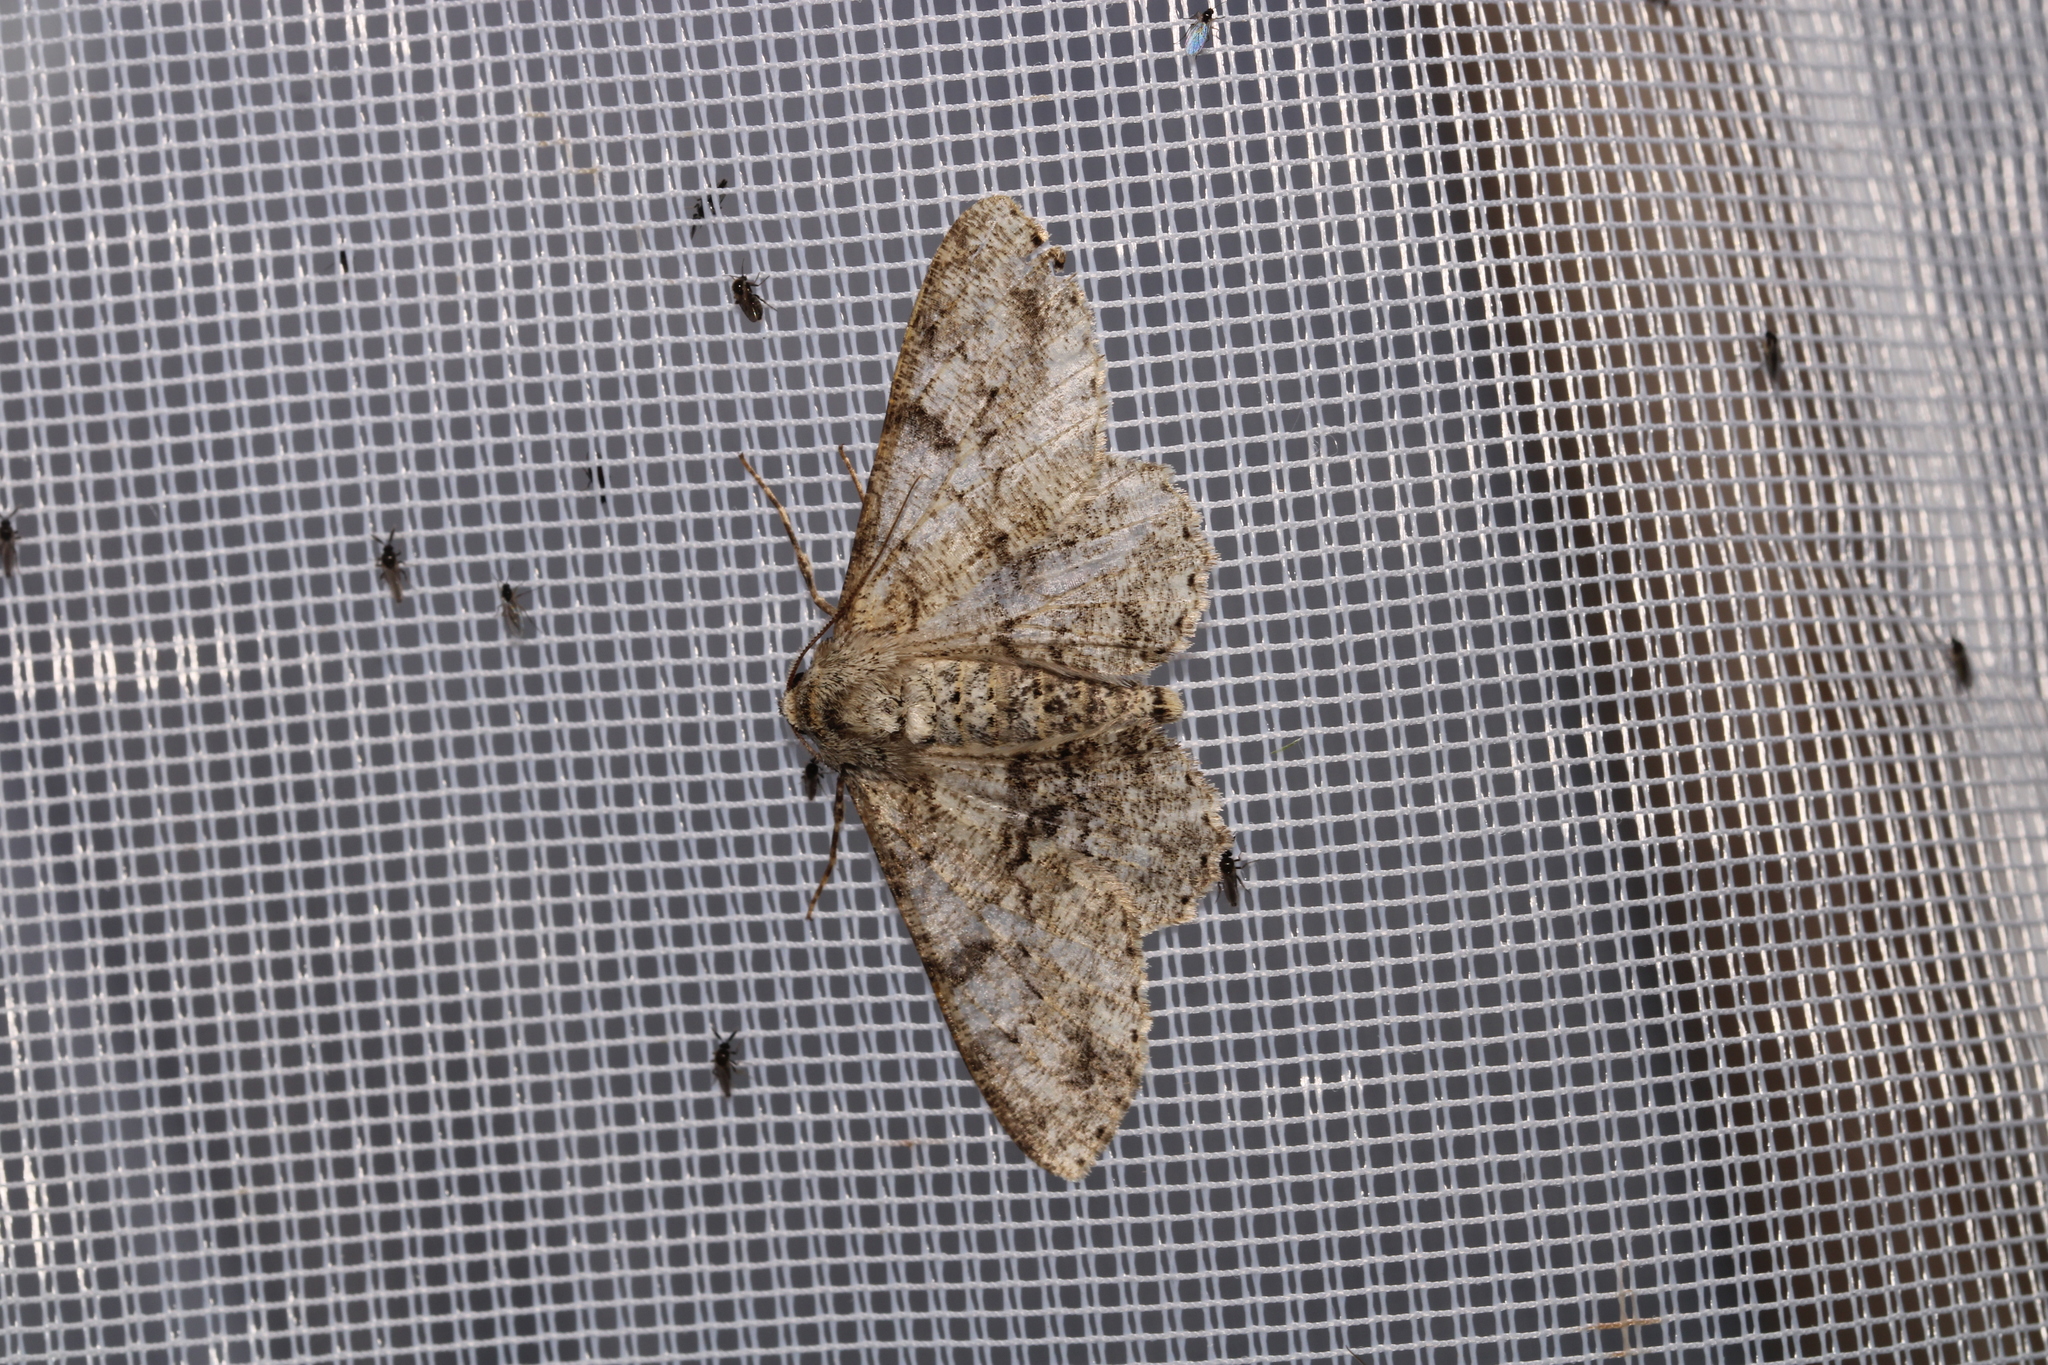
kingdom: Animalia
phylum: Arthropoda
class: Insecta
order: Lepidoptera
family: Geometridae
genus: Ascotis
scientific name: Ascotis selenaria
